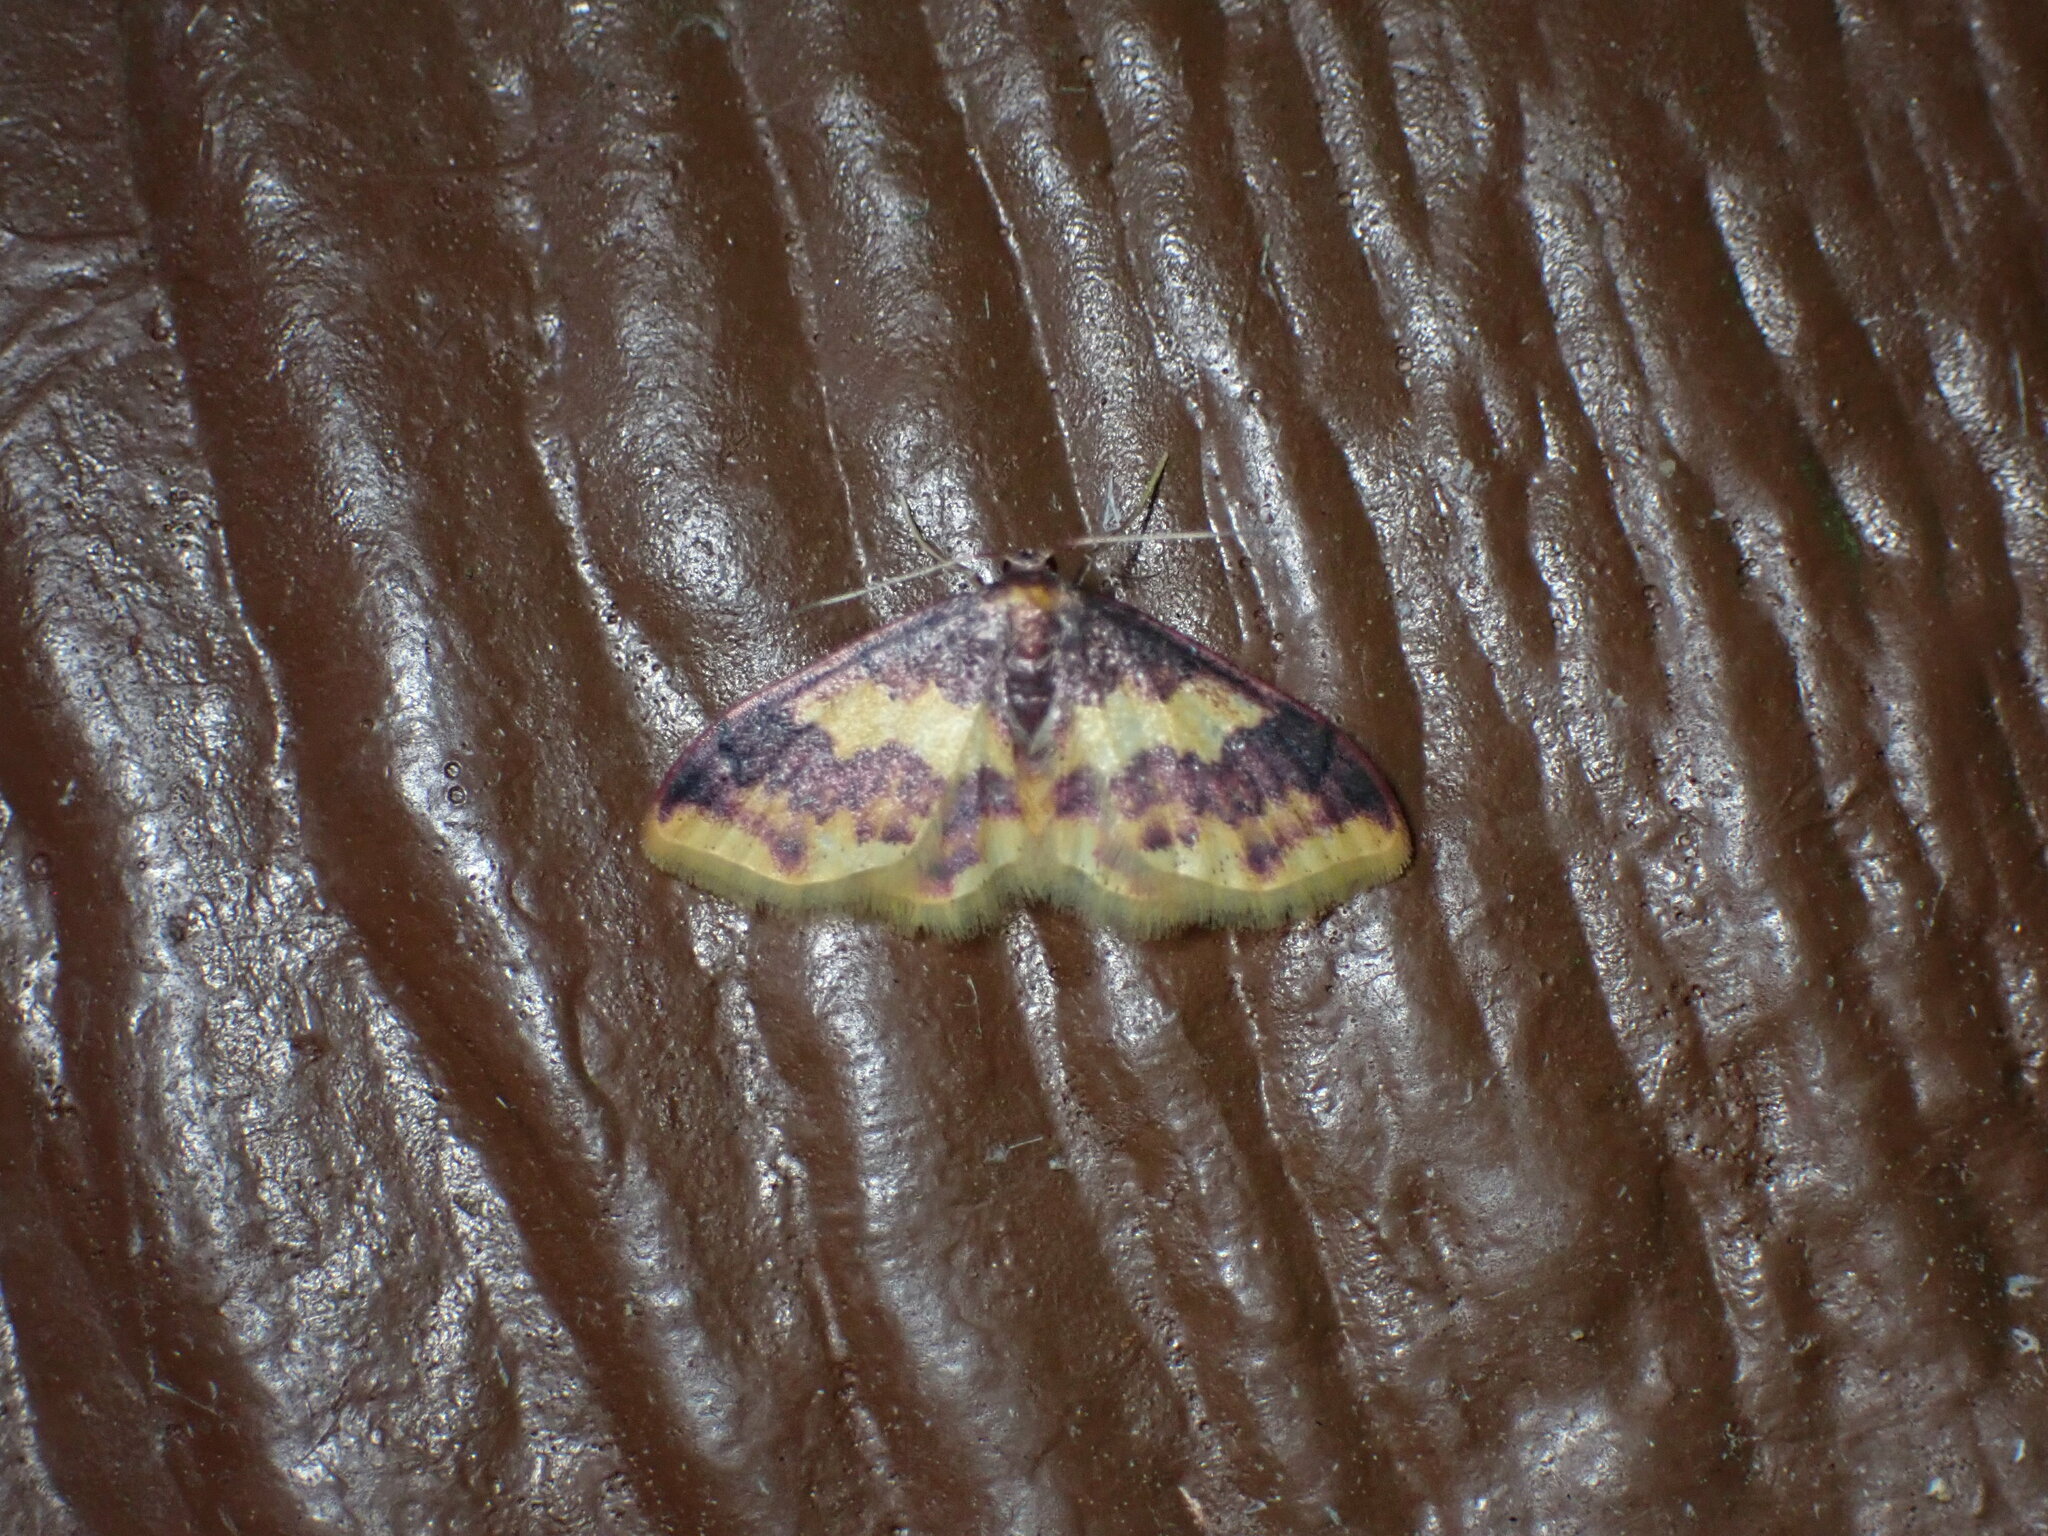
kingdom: Animalia
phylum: Arthropoda
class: Insecta
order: Lepidoptera
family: Geometridae
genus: Lophosis
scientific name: Lophosis labeculata
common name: Stained lophosis moth
